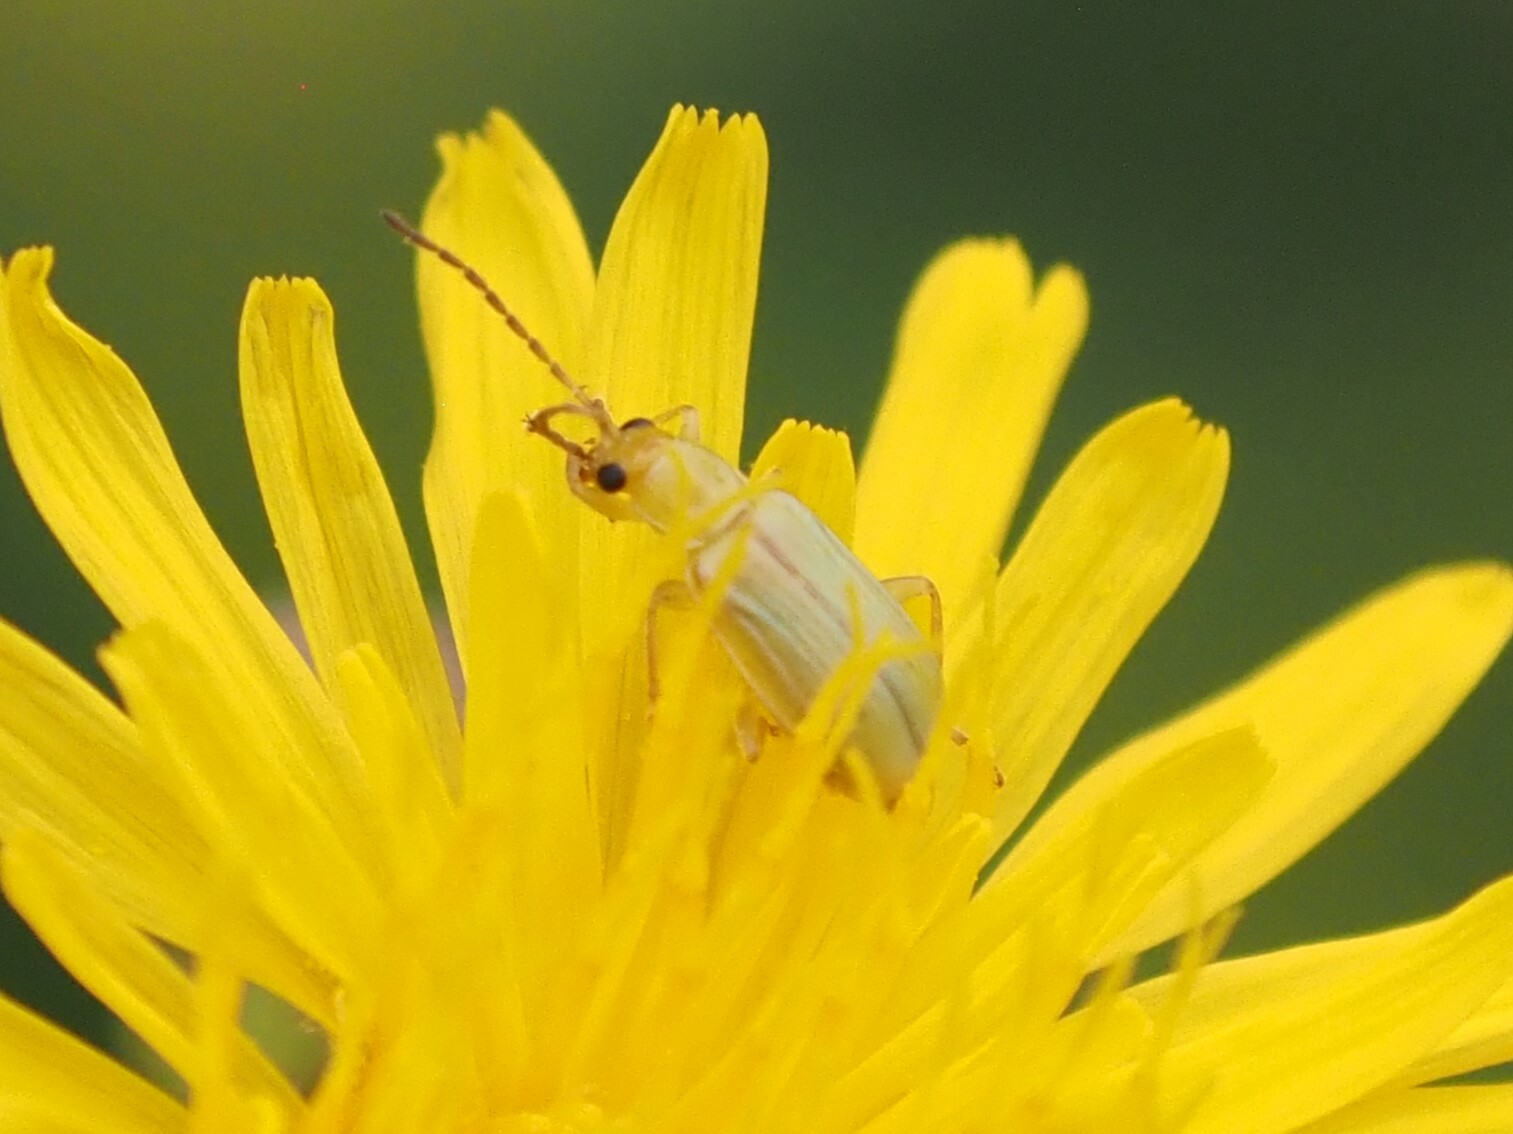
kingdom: Animalia
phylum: Arthropoda
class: Insecta
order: Coleoptera
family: Chrysomelidae
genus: Diabrotica
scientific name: Diabrotica barberi
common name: Northern corn rootworm
